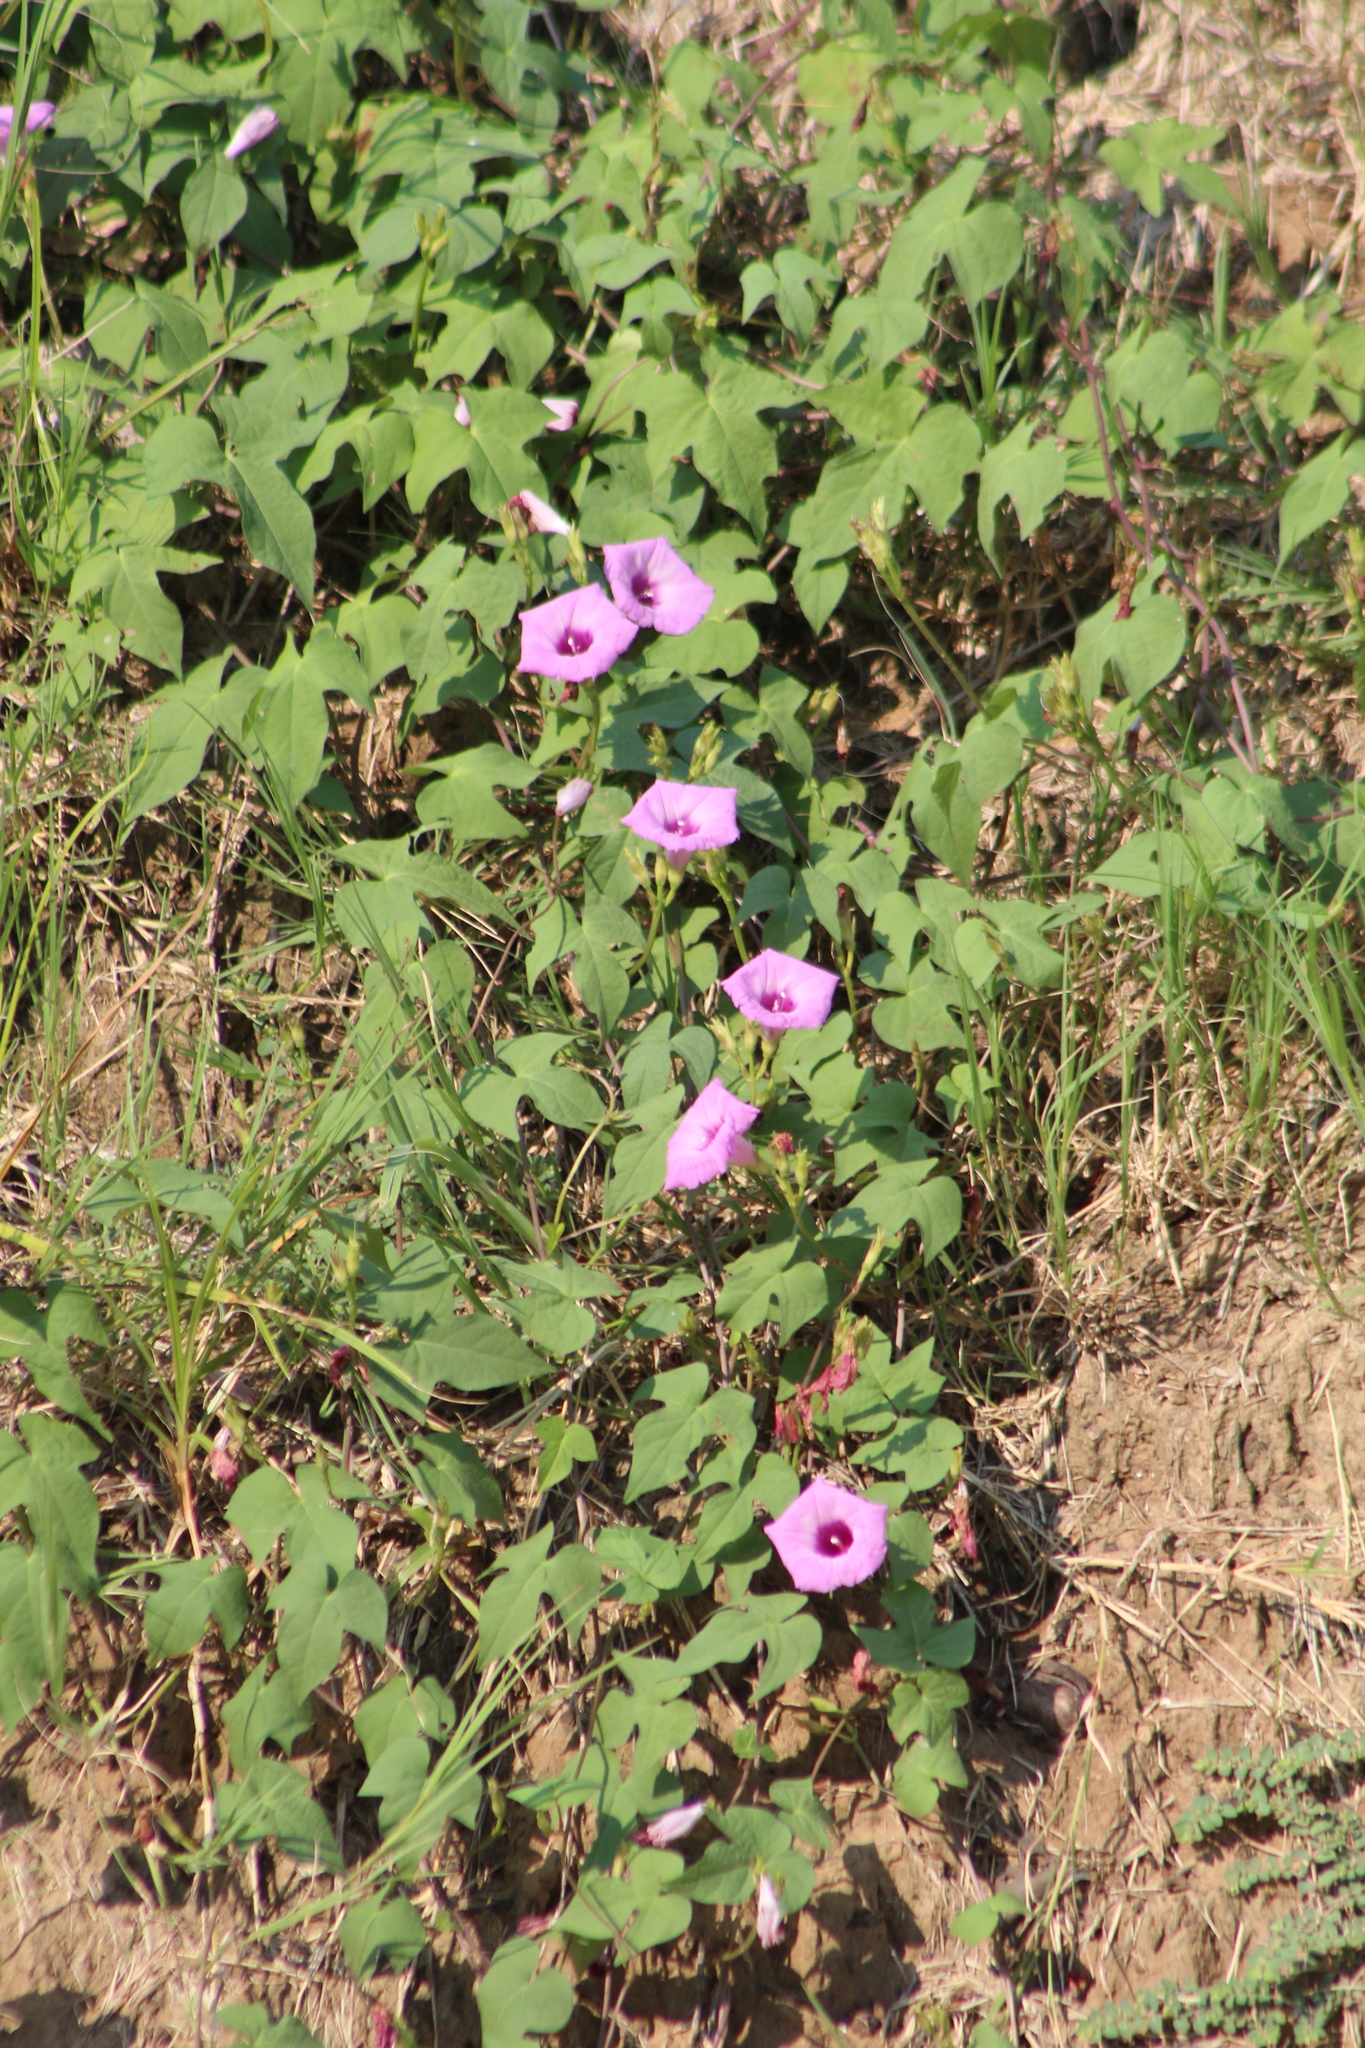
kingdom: Plantae
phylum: Tracheophyta
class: Magnoliopsida
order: Solanales
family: Convolvulaceae
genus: Ipomoea
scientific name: Ipomoea cordatotriloba
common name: Cotton morning glory
